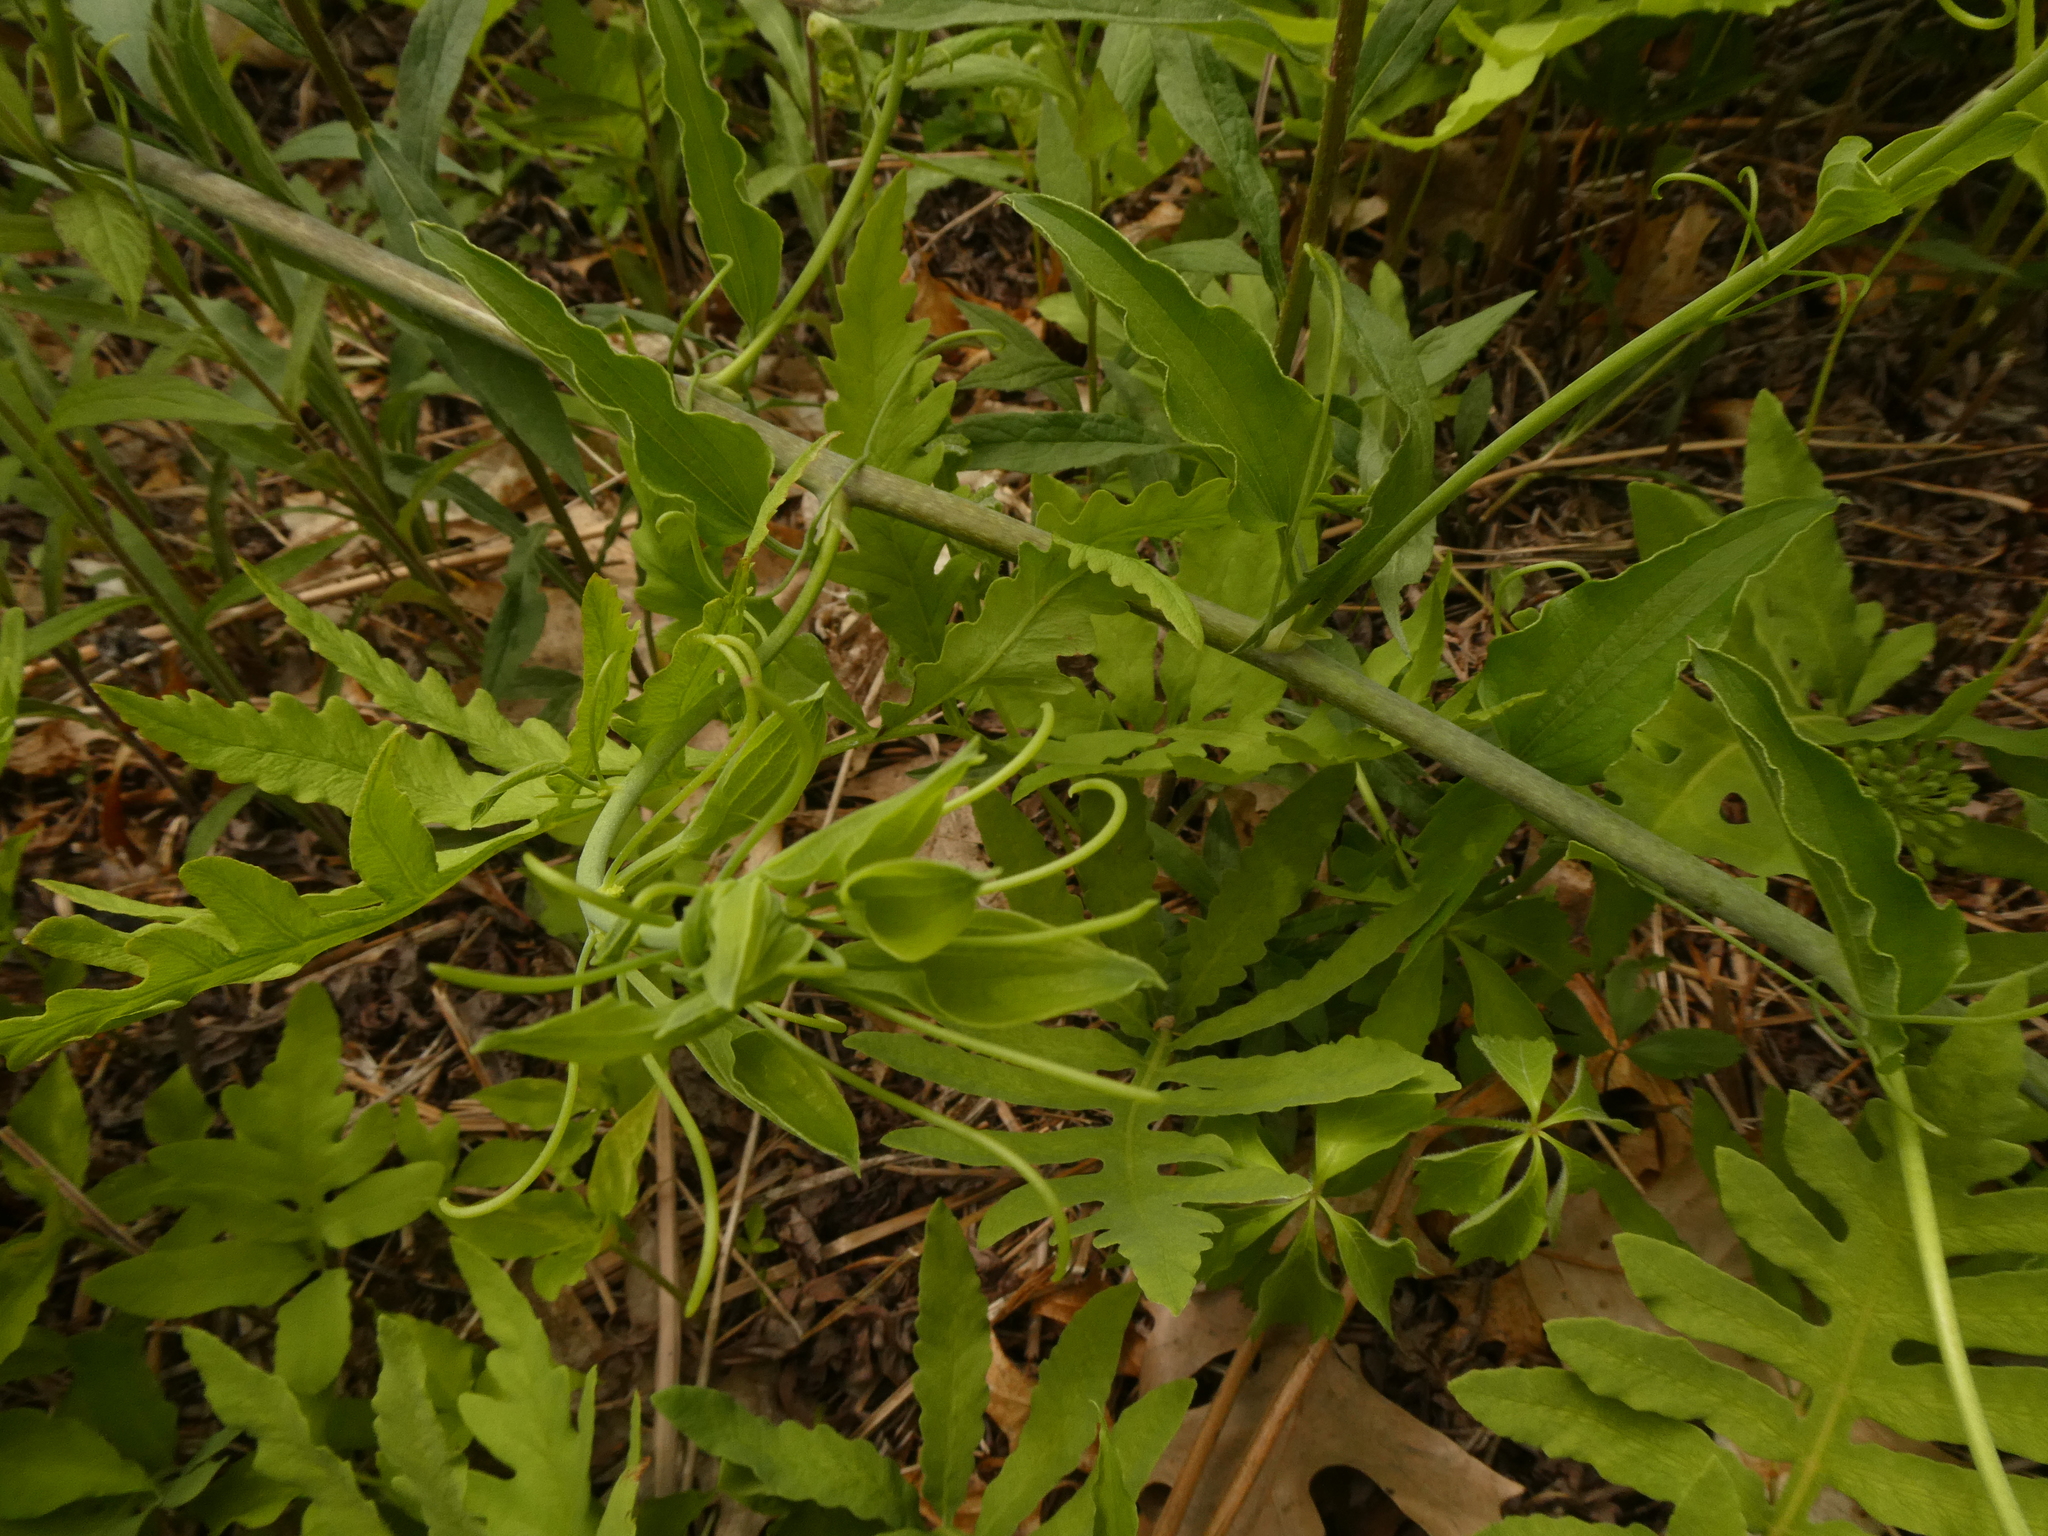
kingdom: Plantae
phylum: Tracheophyta
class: Liliopsida
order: Liliales
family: Smilacaceae
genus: Smilax
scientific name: Smilax herbacea
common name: Jacob's-ladder
